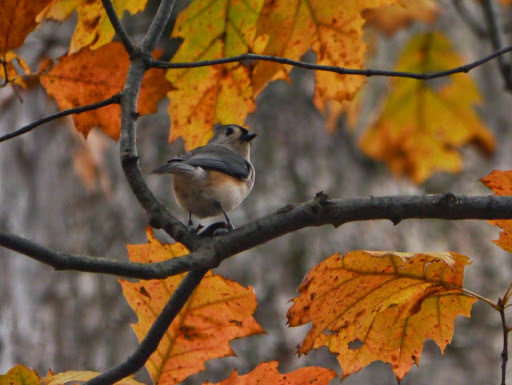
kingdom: Animalia
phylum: Chordata
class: Aves
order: Passeriformes
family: Paridae
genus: Baeolophus
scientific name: Baeolophus bicolor
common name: Tufted titmouse
